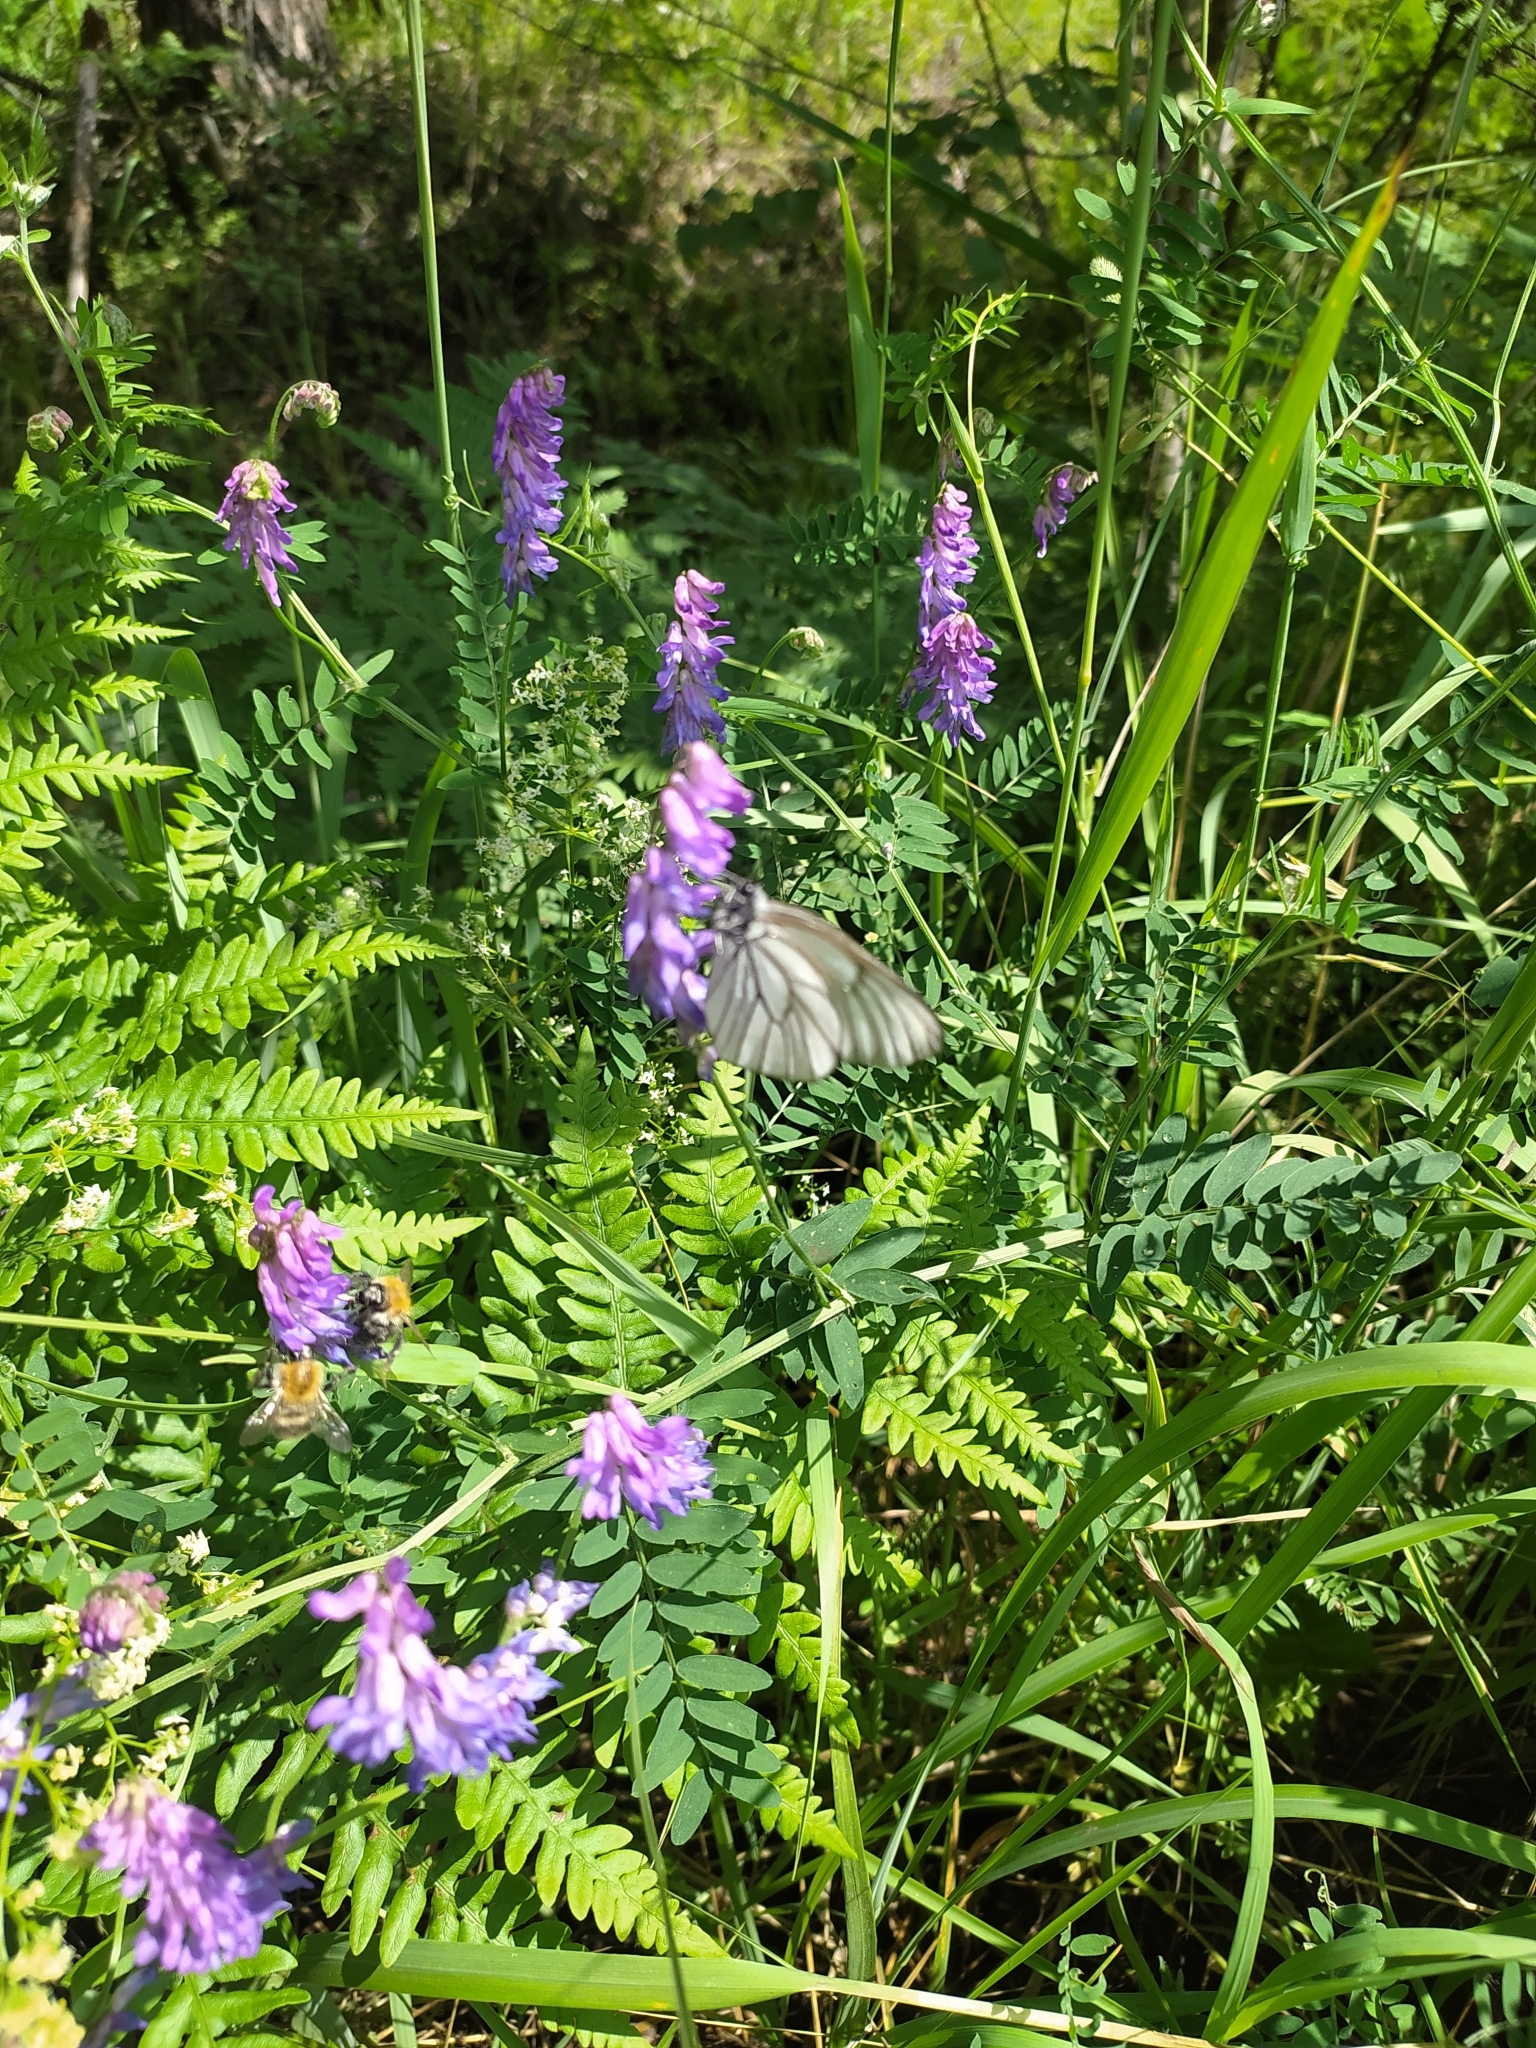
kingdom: Animalia
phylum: Arthropoda
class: Insecta
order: Lepidoptera
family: Pieridae
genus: Aporia
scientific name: Aporia crataegi
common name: Black-veined white
